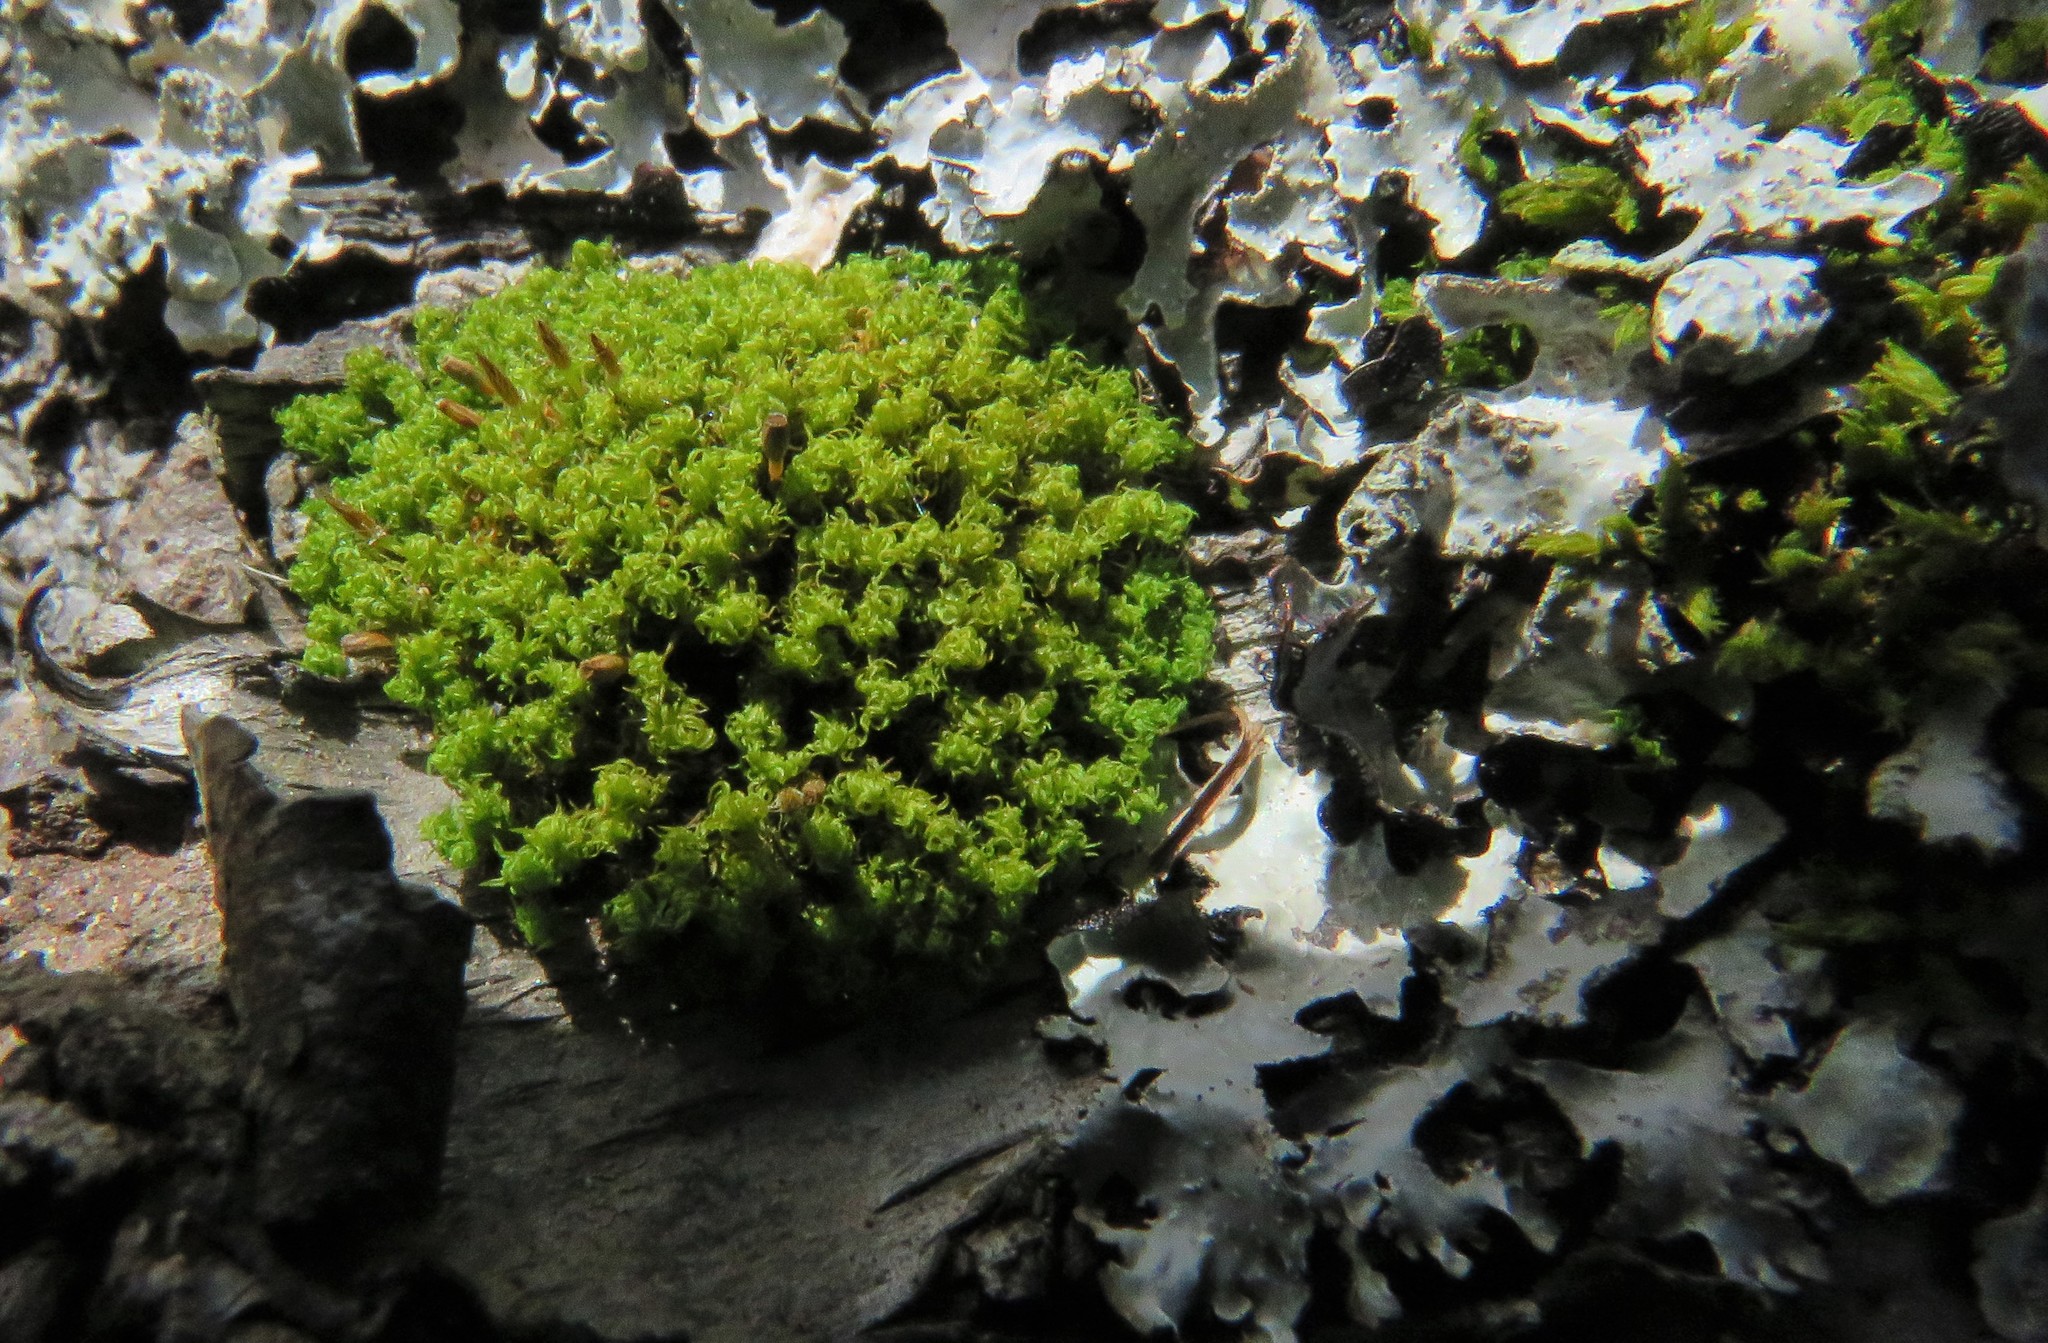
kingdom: Plantae
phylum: Bryophyta
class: Bryopsida
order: Orthotrichales
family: Orthotrichaceae
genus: Ulota
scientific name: Ulota crispa
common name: Crisped pincushion moss
